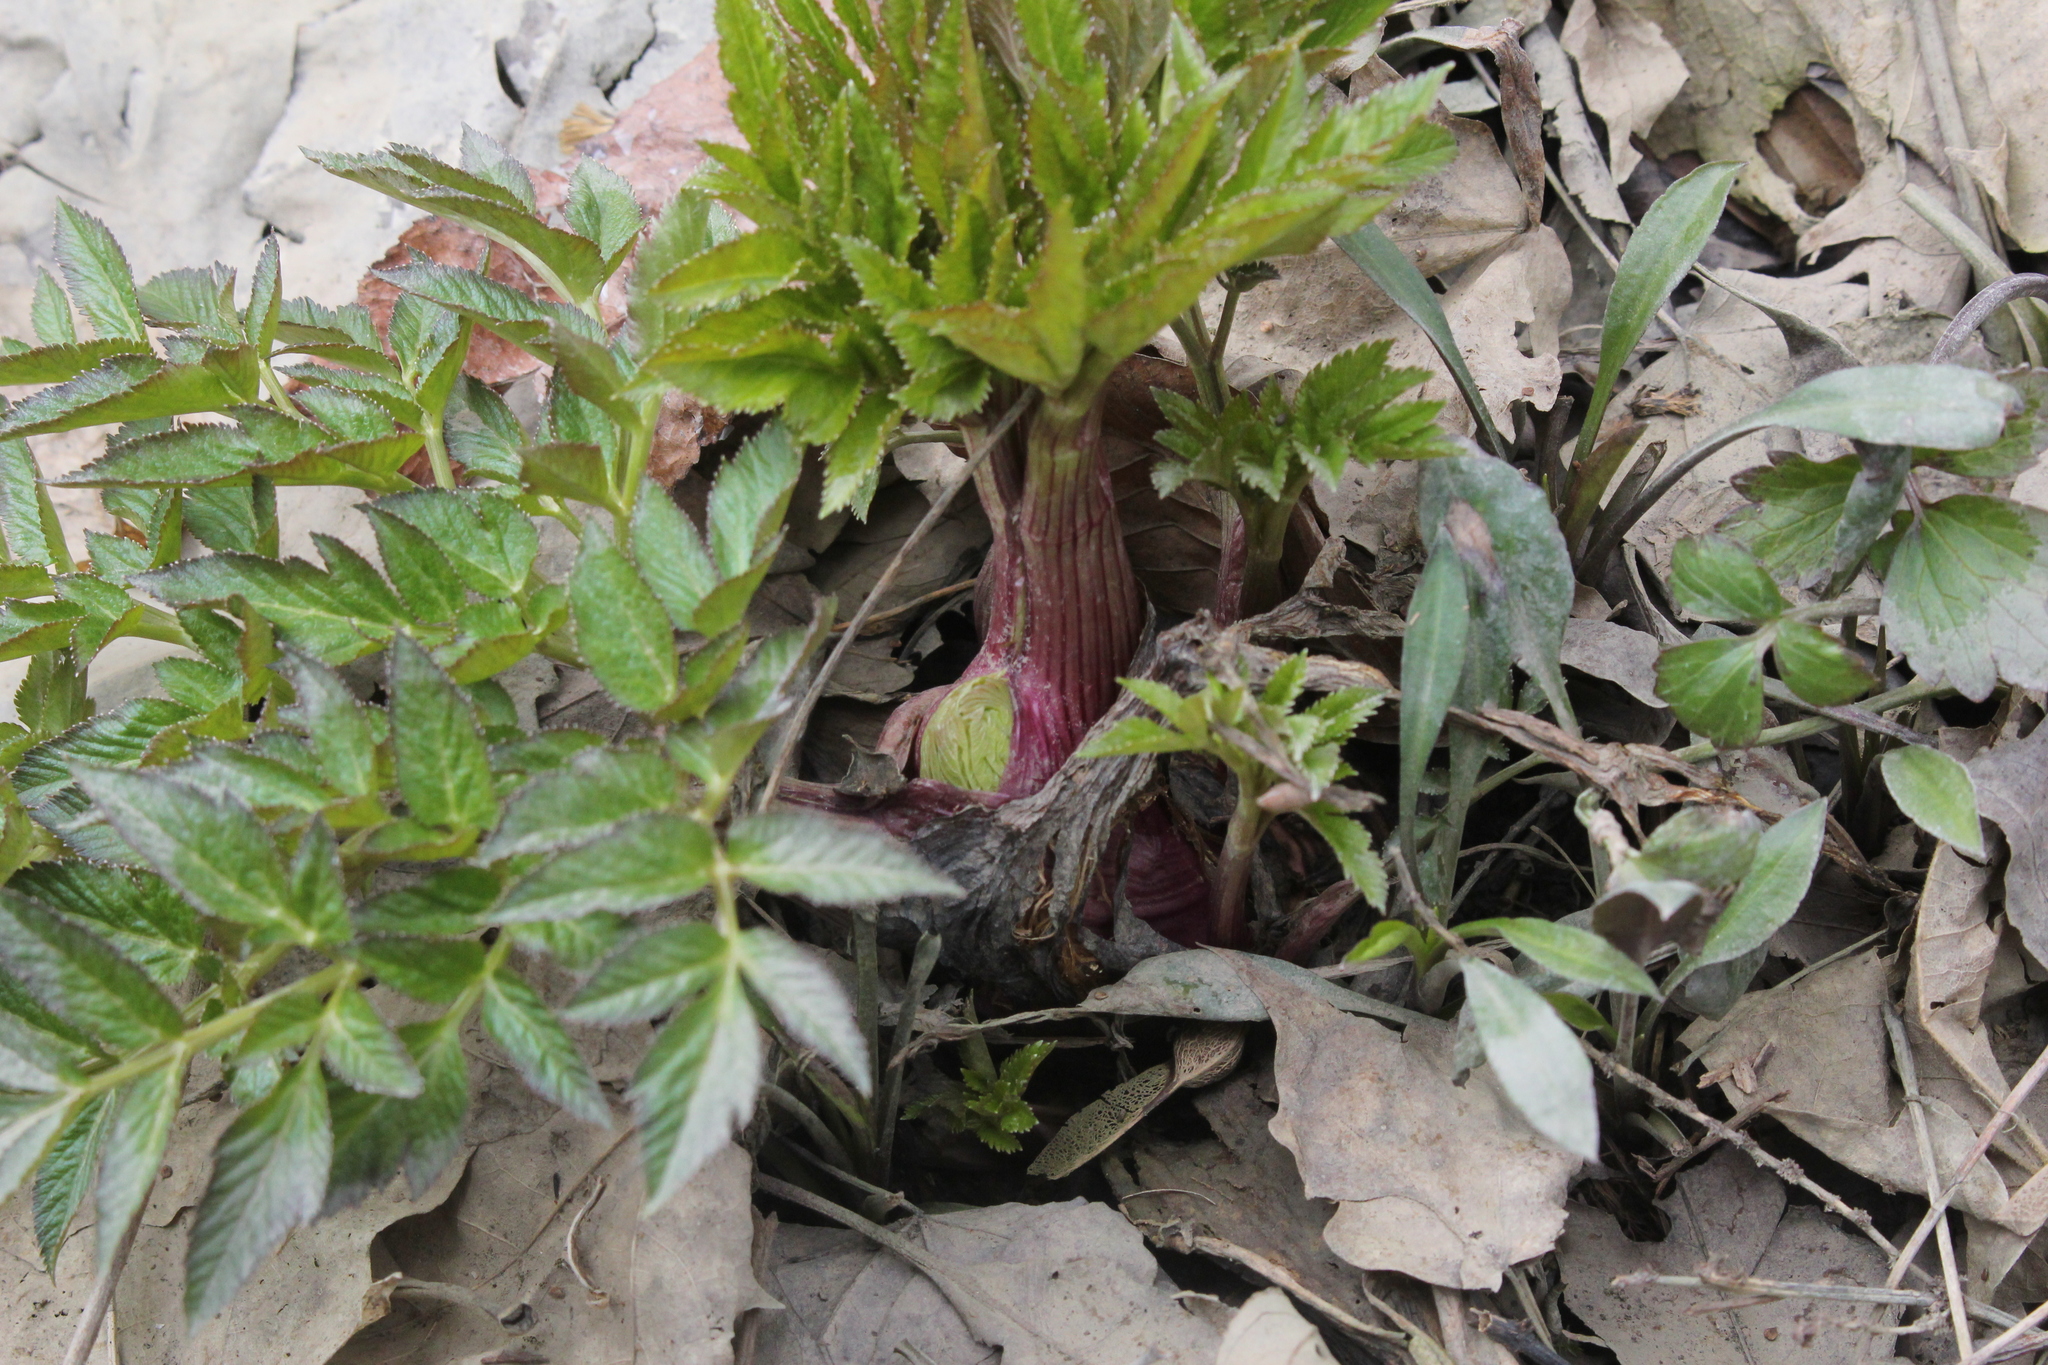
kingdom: Plantae
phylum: Tracheophyta
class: Magnoliopsida
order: Apiales
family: Apiaceae
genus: Angelica
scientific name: Angelica atropurpurea
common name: Great angelica
